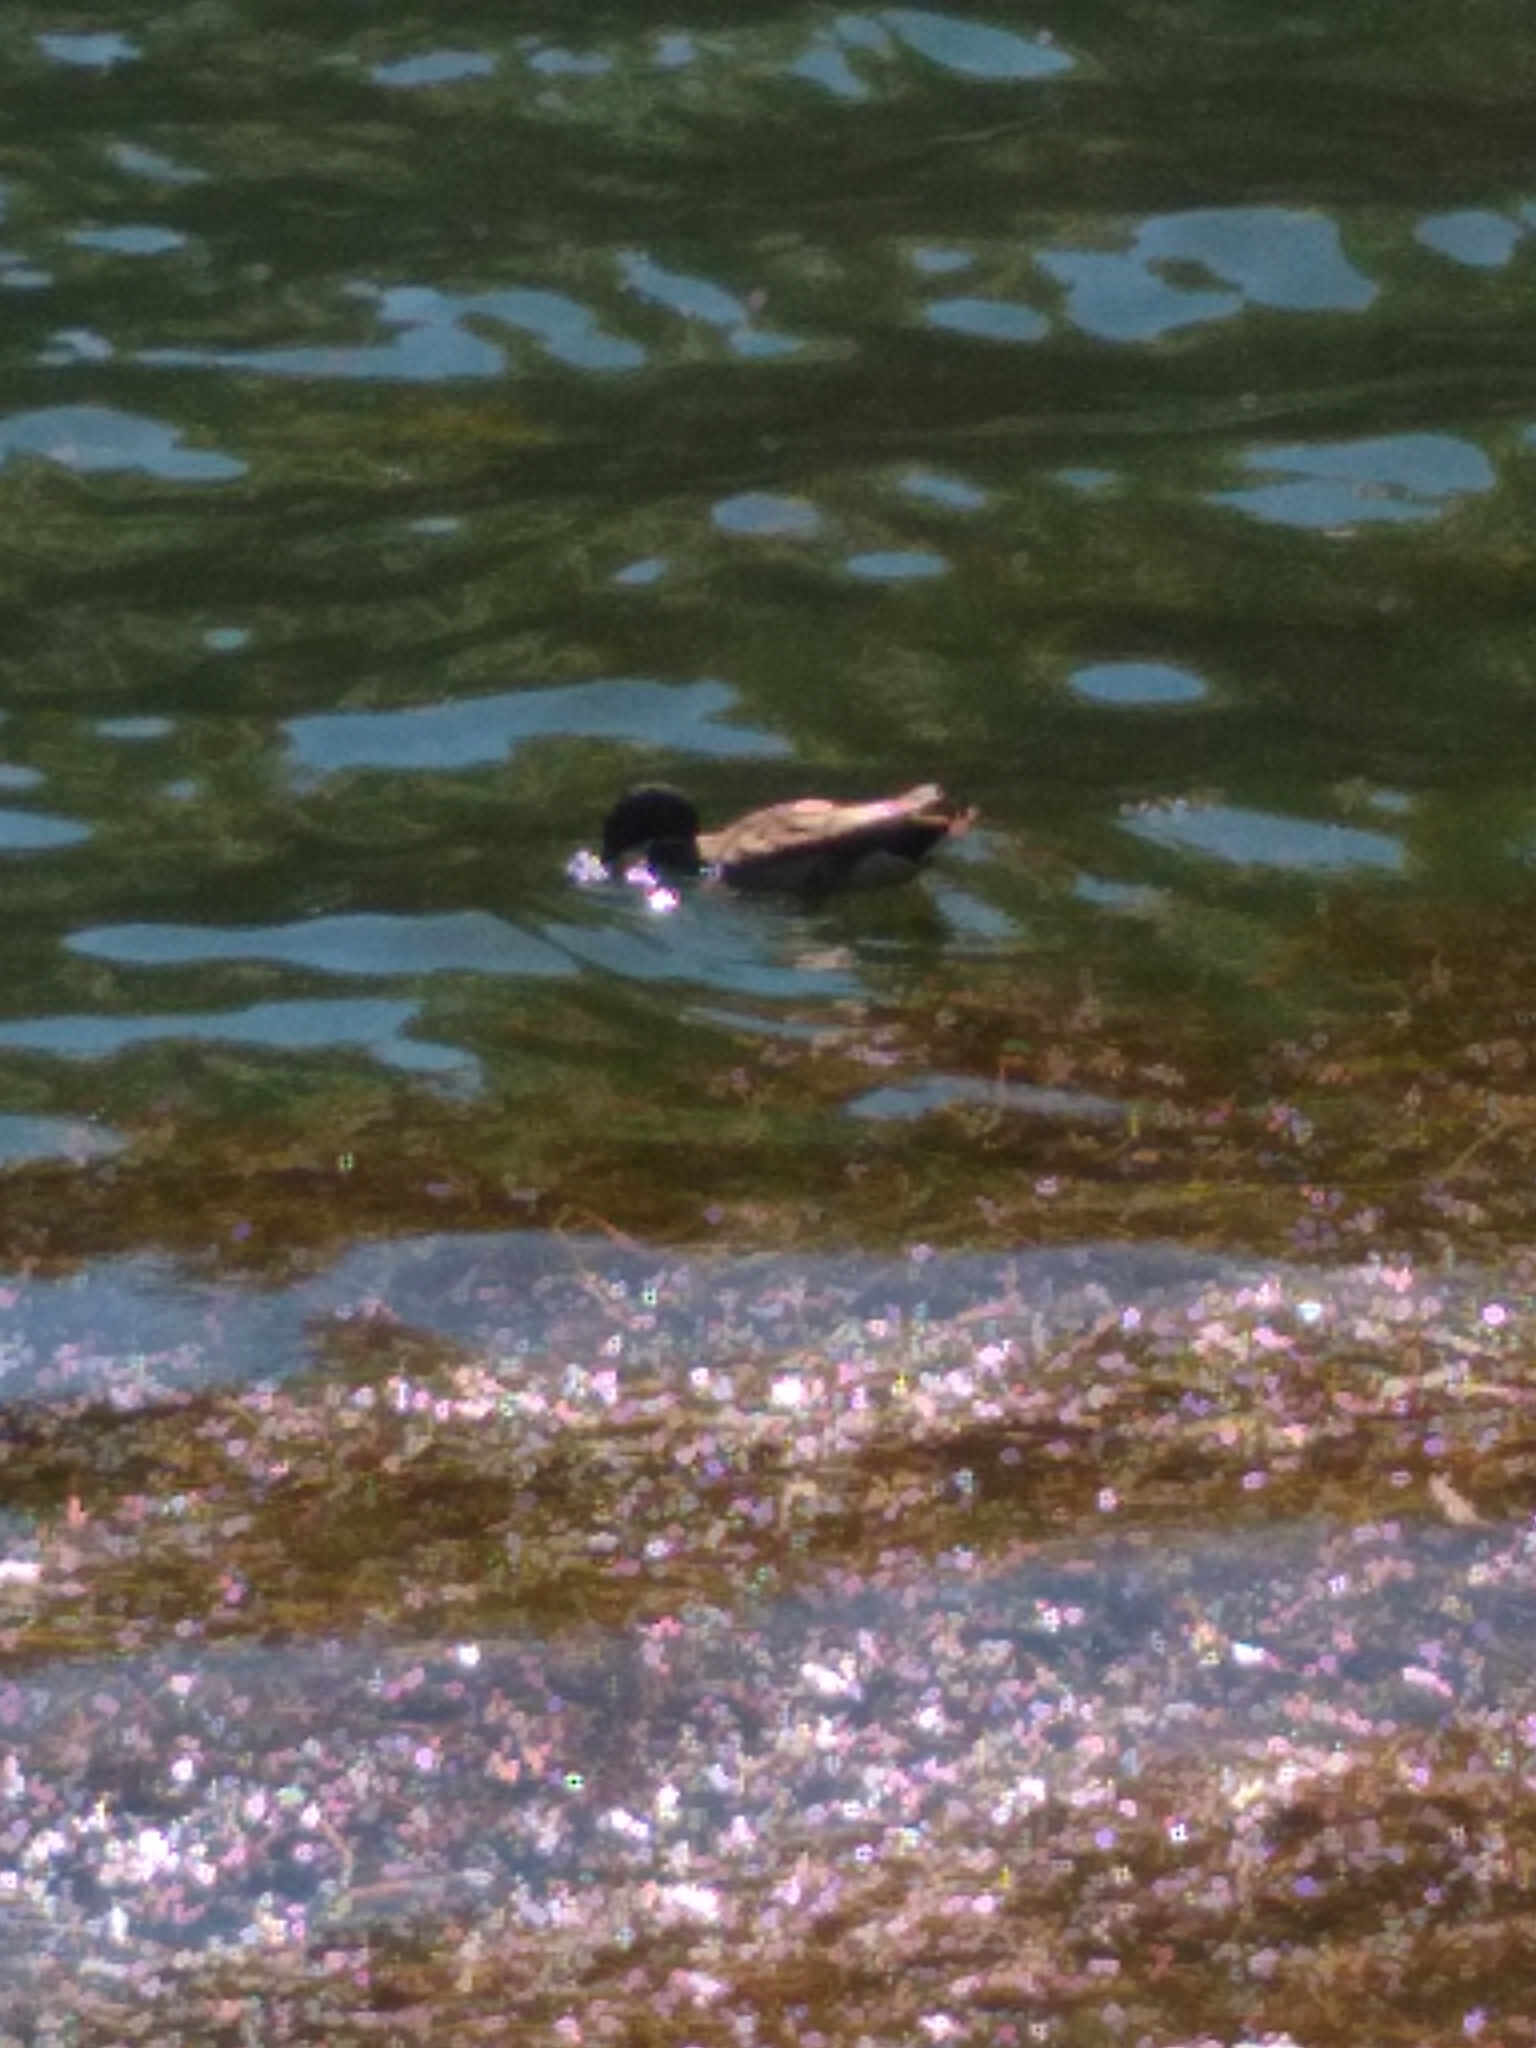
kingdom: Animalia
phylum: Chordata
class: Aves
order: Anseriformes
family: Anatidae
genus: Anas
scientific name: Anas platyrhynchos
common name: Mallard
